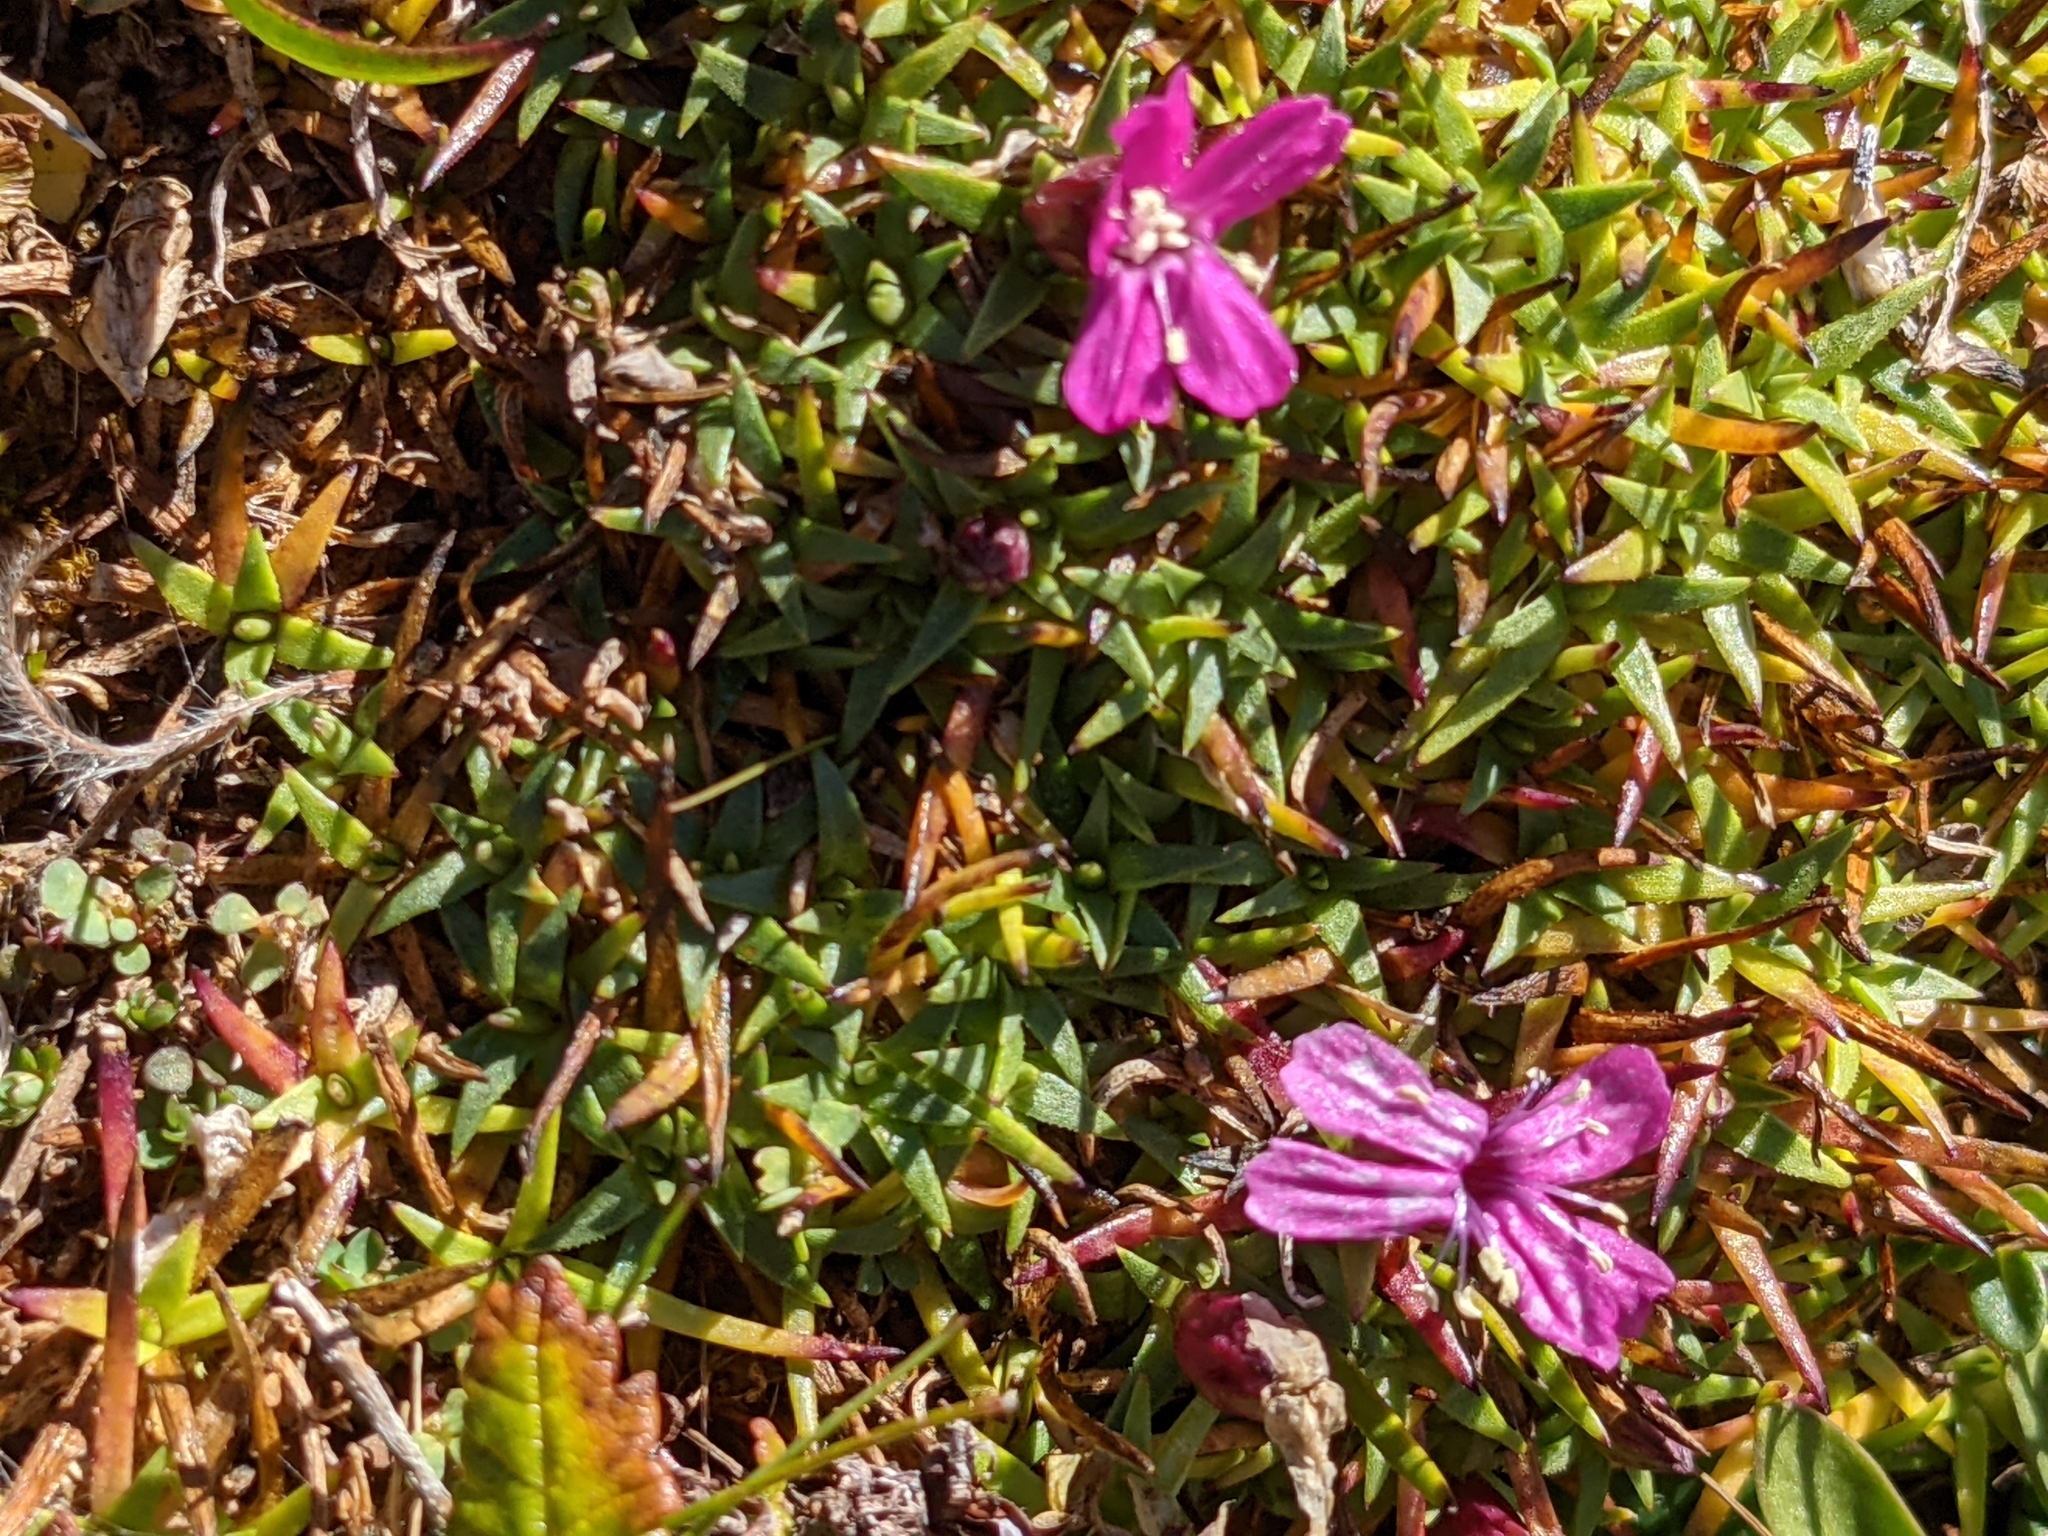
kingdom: Plantae
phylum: Tracheophyta
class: Magnoliopsida
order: Caryophyllales
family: Caryophyllaceae
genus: Silene
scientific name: Silene acaulis
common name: Moss campion
